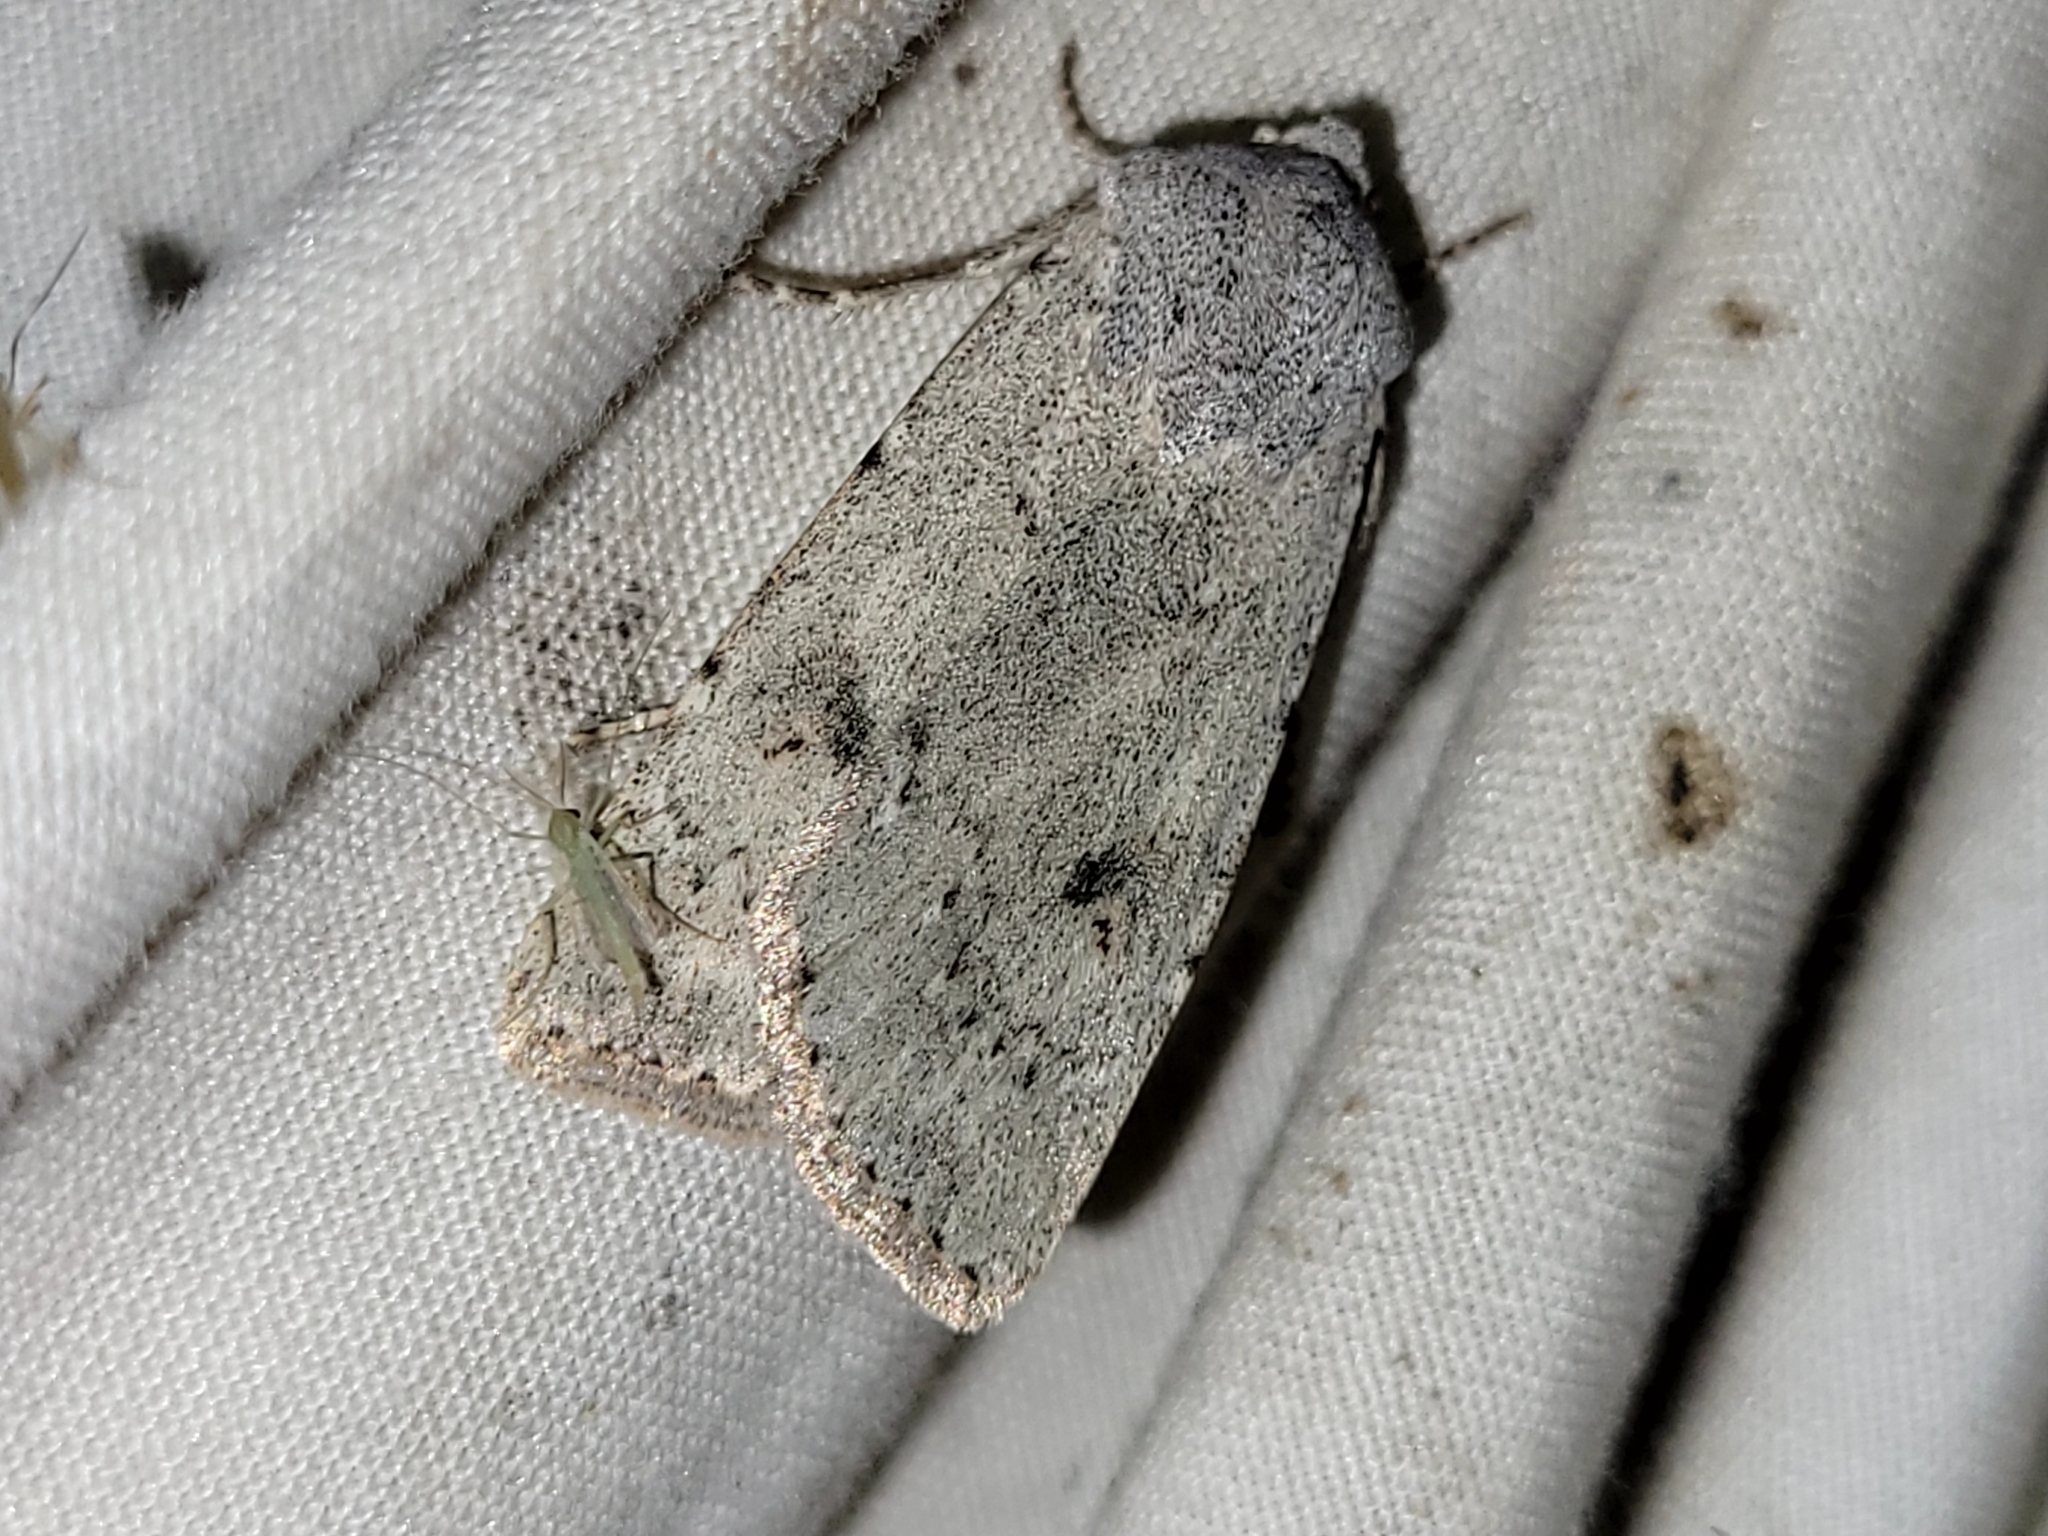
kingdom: Animalia
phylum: Arthropoda
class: Insecta
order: Lepidoptera
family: Noctuidae
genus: Agrotis
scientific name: Agrotis vetusta
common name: Old man dart
